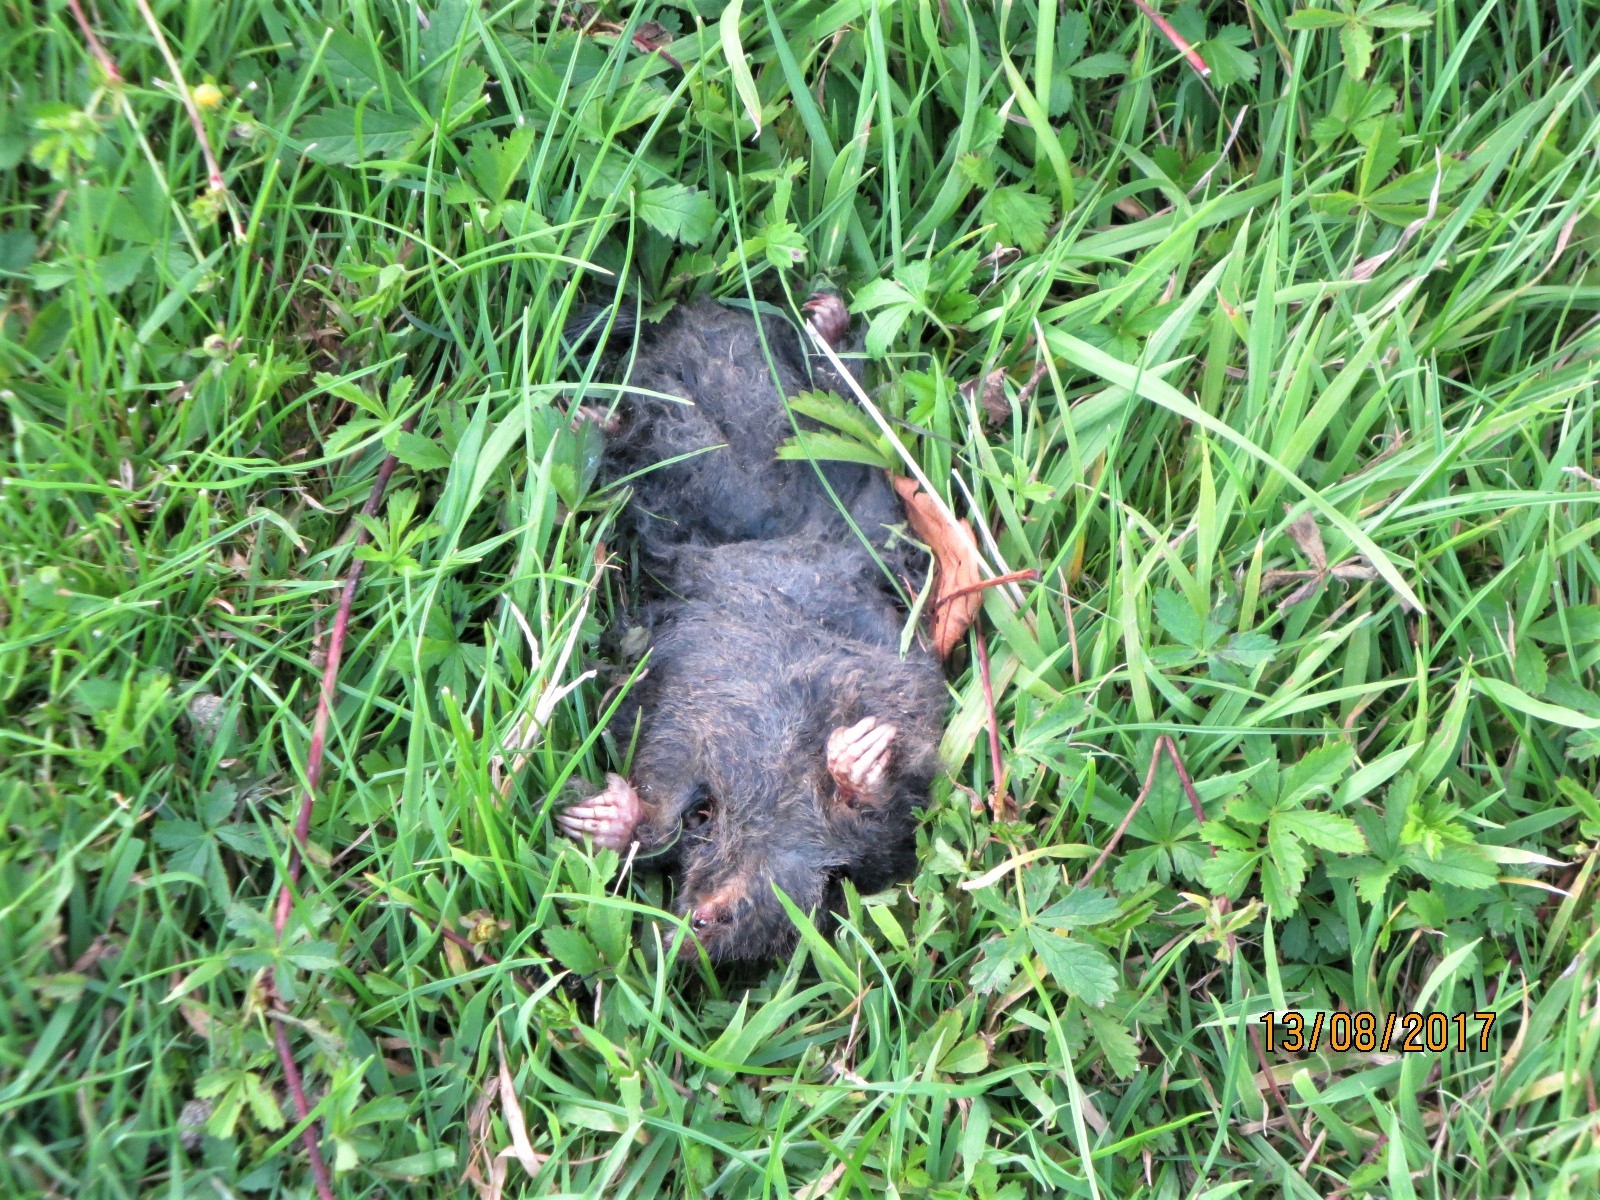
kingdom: Animalia
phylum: Chordata
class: Mammalia
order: Soricomorpha
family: Talpidae
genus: Talpa
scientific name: Talpa europaea
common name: European mole
